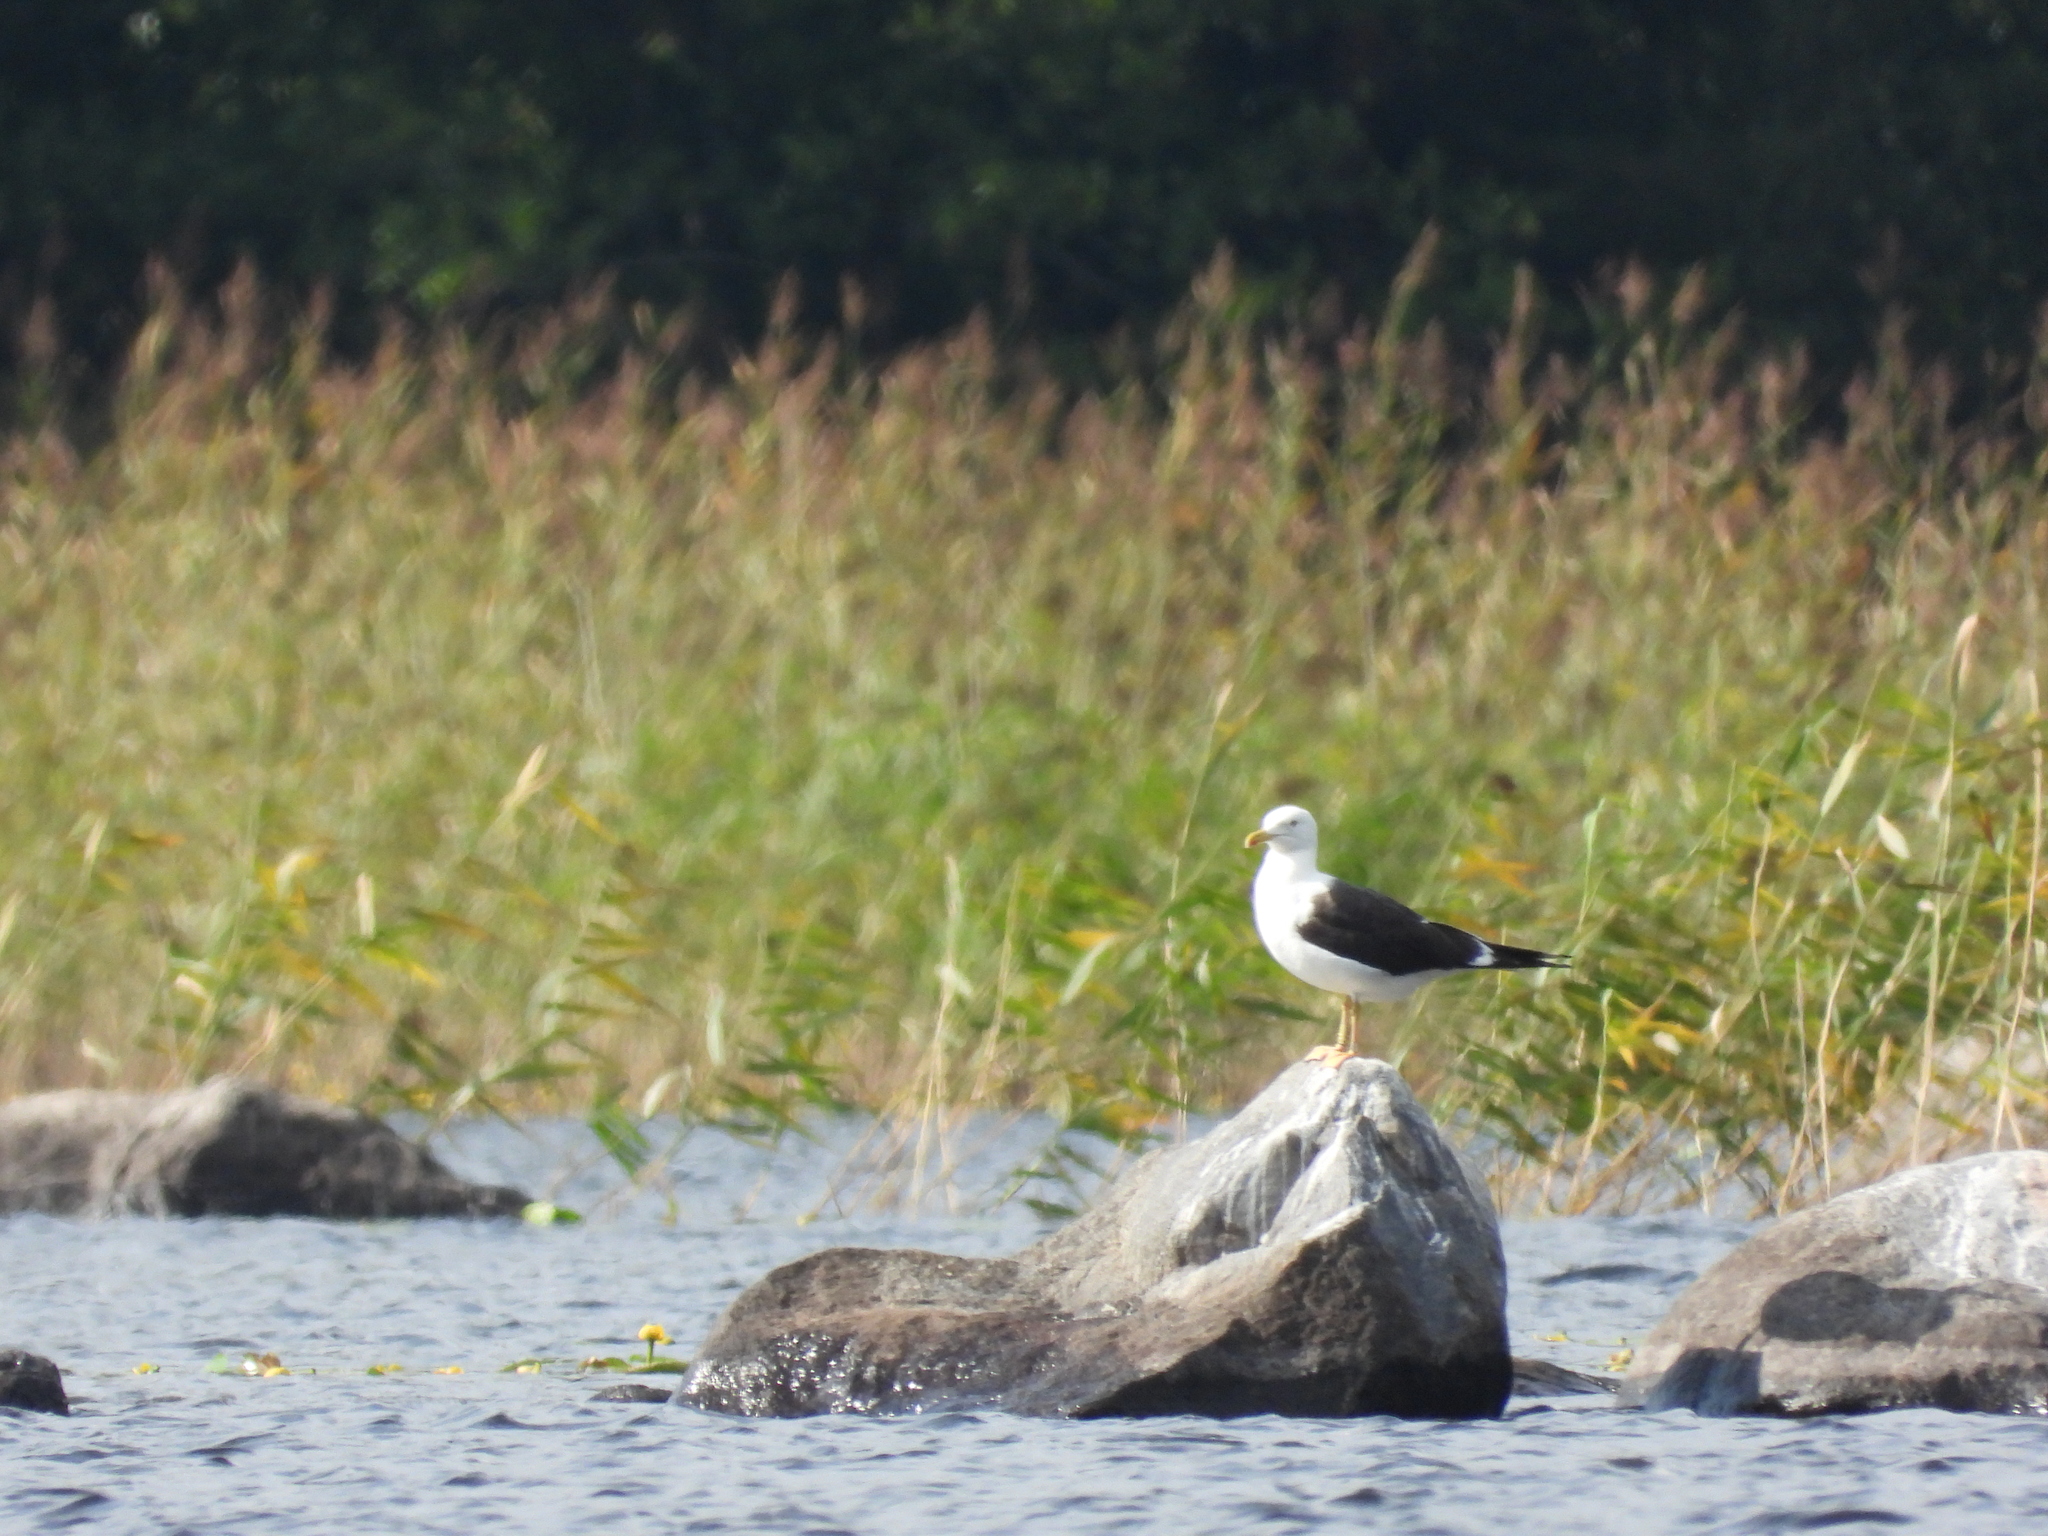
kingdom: Animalia
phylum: Chordata
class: Aves
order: Charadriiformes
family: Laridae
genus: Larus
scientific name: Larus fuscus
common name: Lesser black-backed gull
